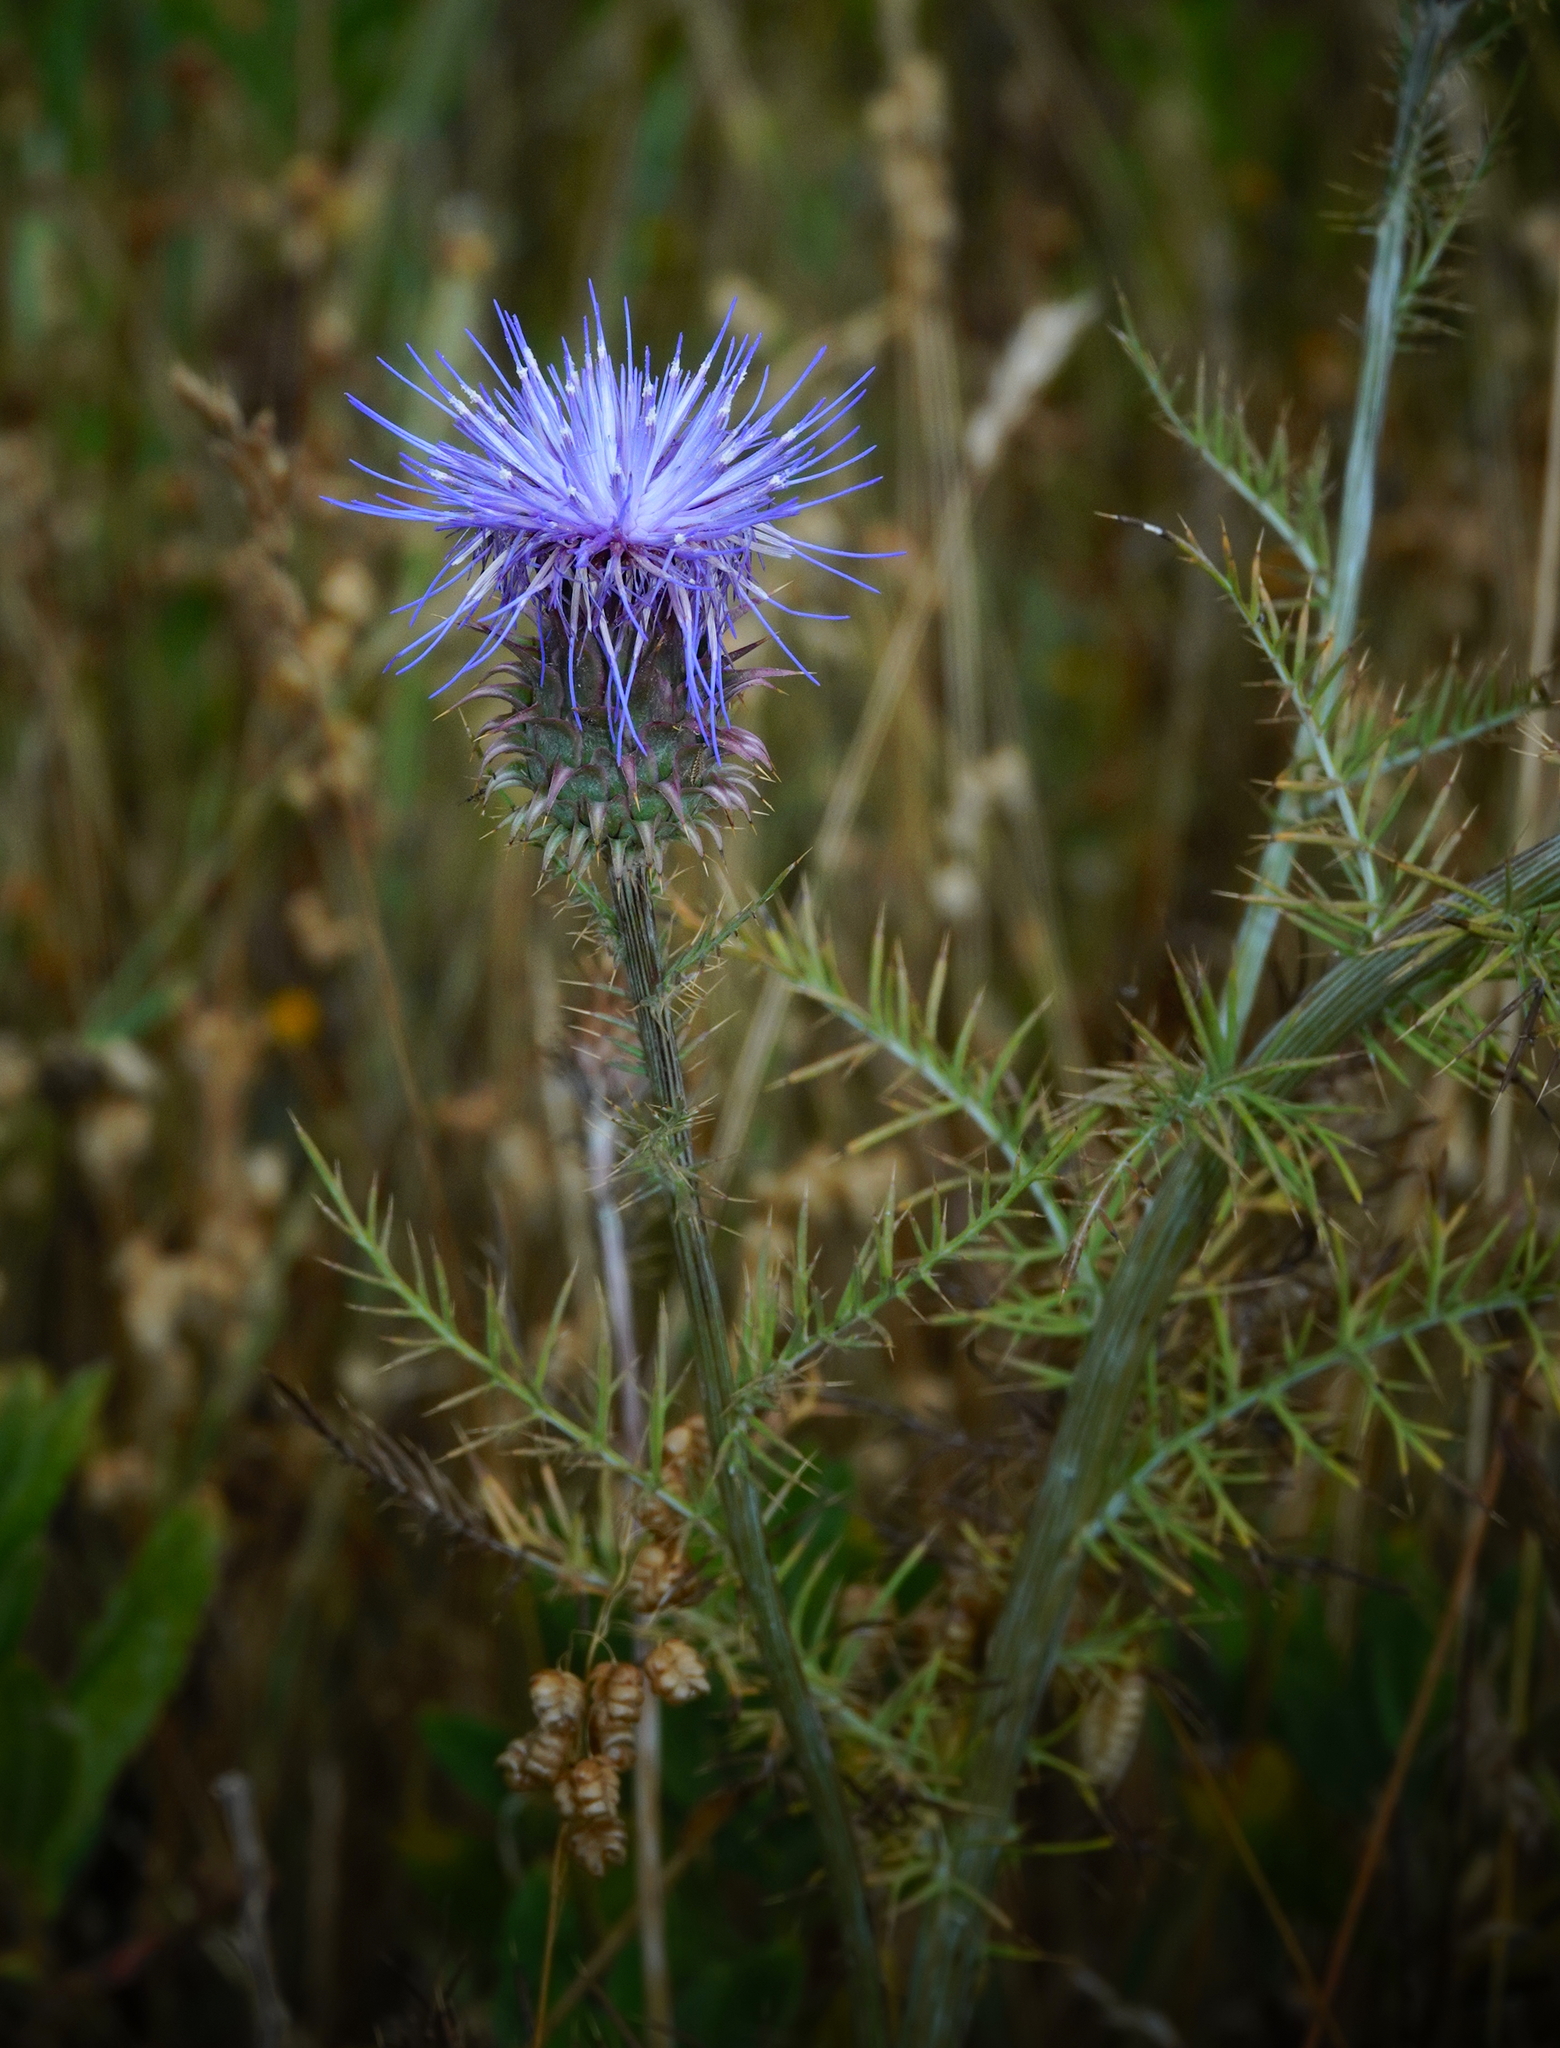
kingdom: Plantae
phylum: Tracheophyta
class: Magnoliopsida
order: Asterales
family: Asteraceae
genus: Cynara
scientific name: Cynara humilis
